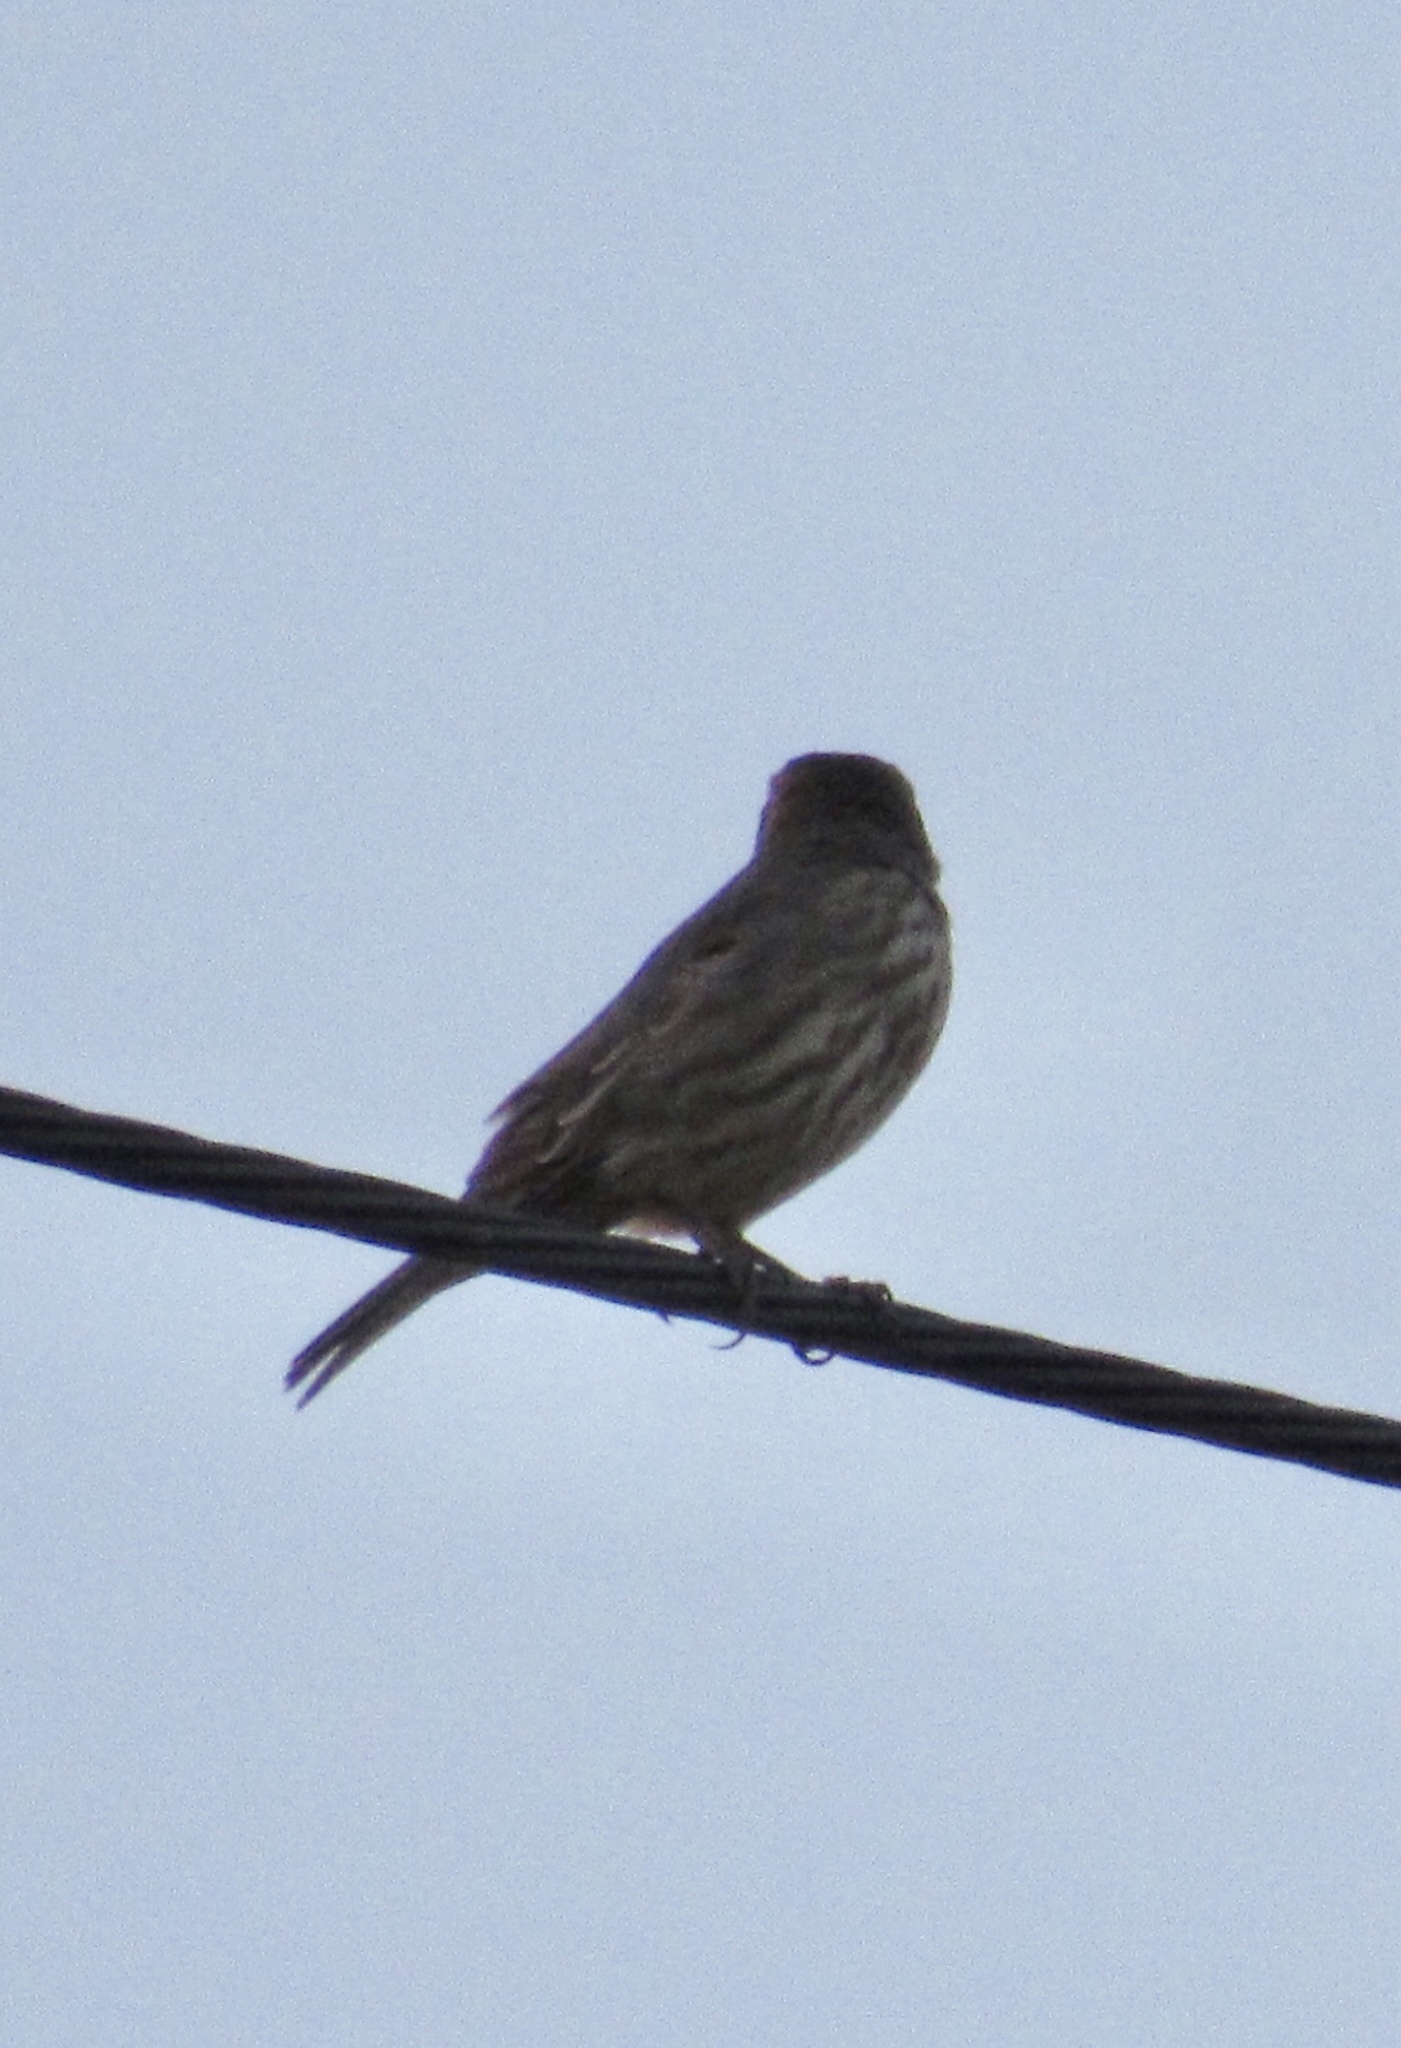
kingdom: Animalia
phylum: Chordata
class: Aves
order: Passeriformes
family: Fringillidae
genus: Haemorhous
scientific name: Haemorhous mexicanus
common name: House finch
